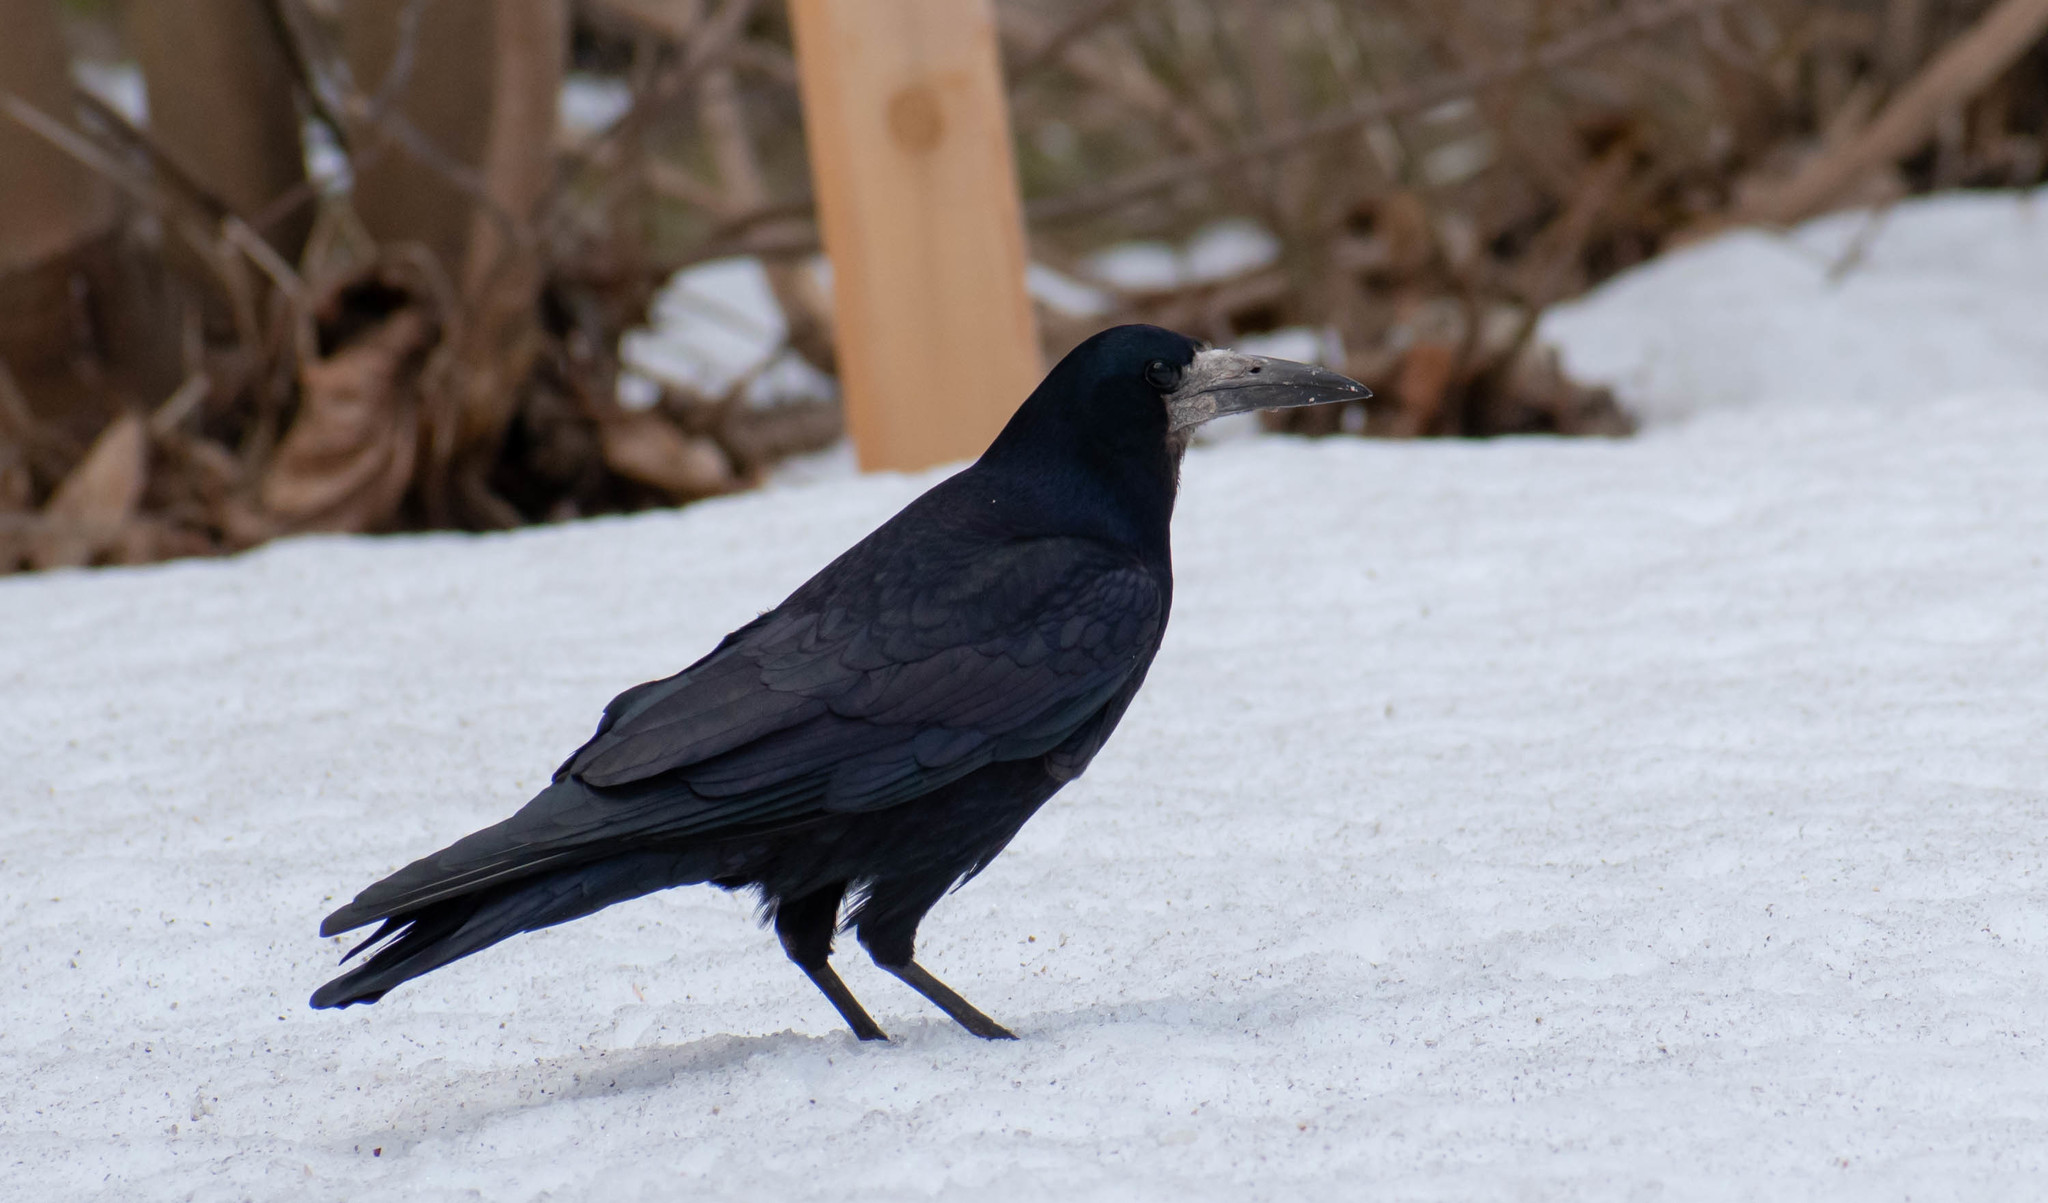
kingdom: Animalia
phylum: Chordata
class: Aves
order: Passeriformes
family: Corvidae
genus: Corvus
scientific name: Corvus frugilegus
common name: Rook
